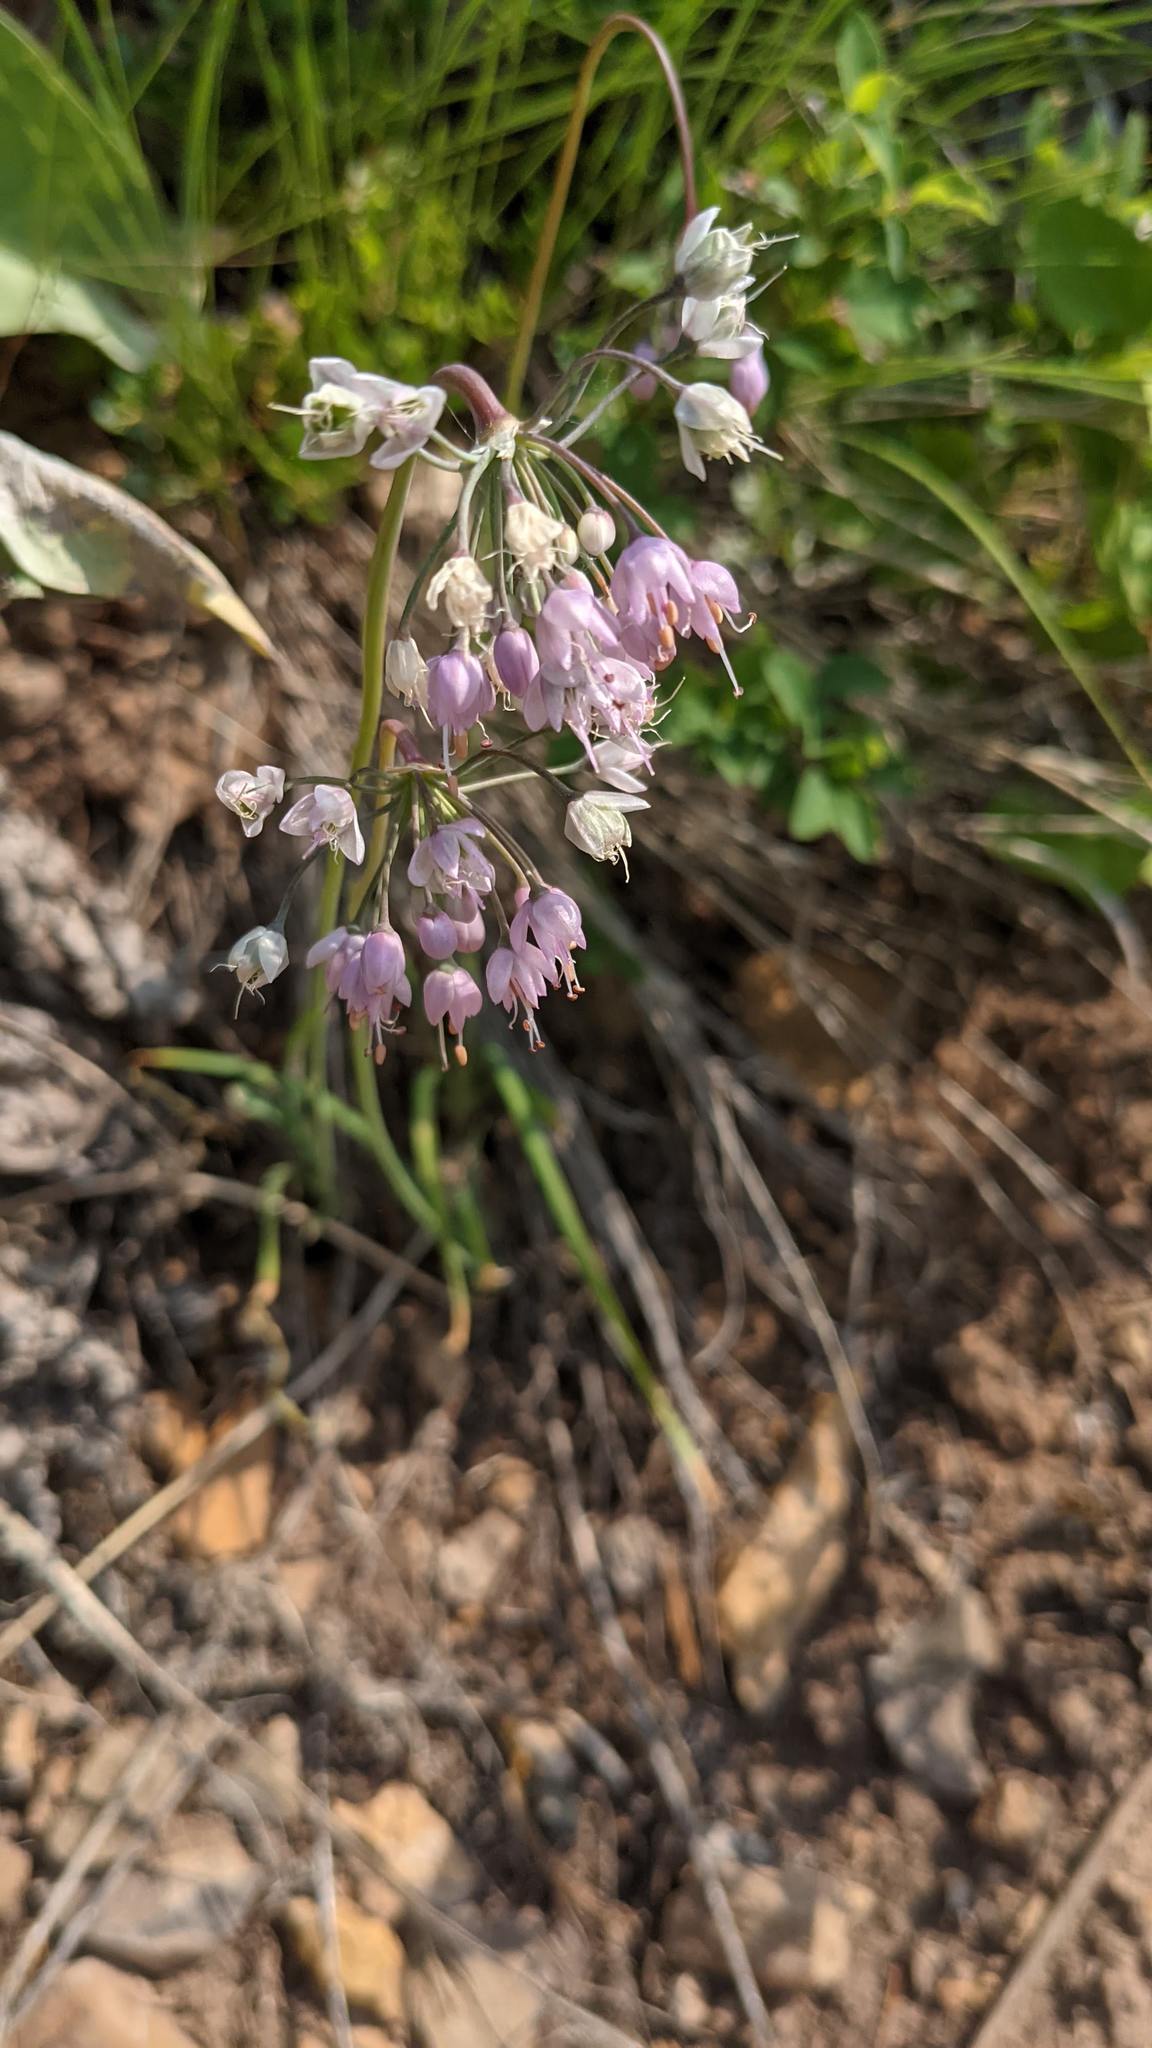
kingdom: Plantae
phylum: Tracheophyta
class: Liliopsida
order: Asparagales
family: Amaryllidaceae
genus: Allium
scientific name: Allium cernuum
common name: Nodding onion
